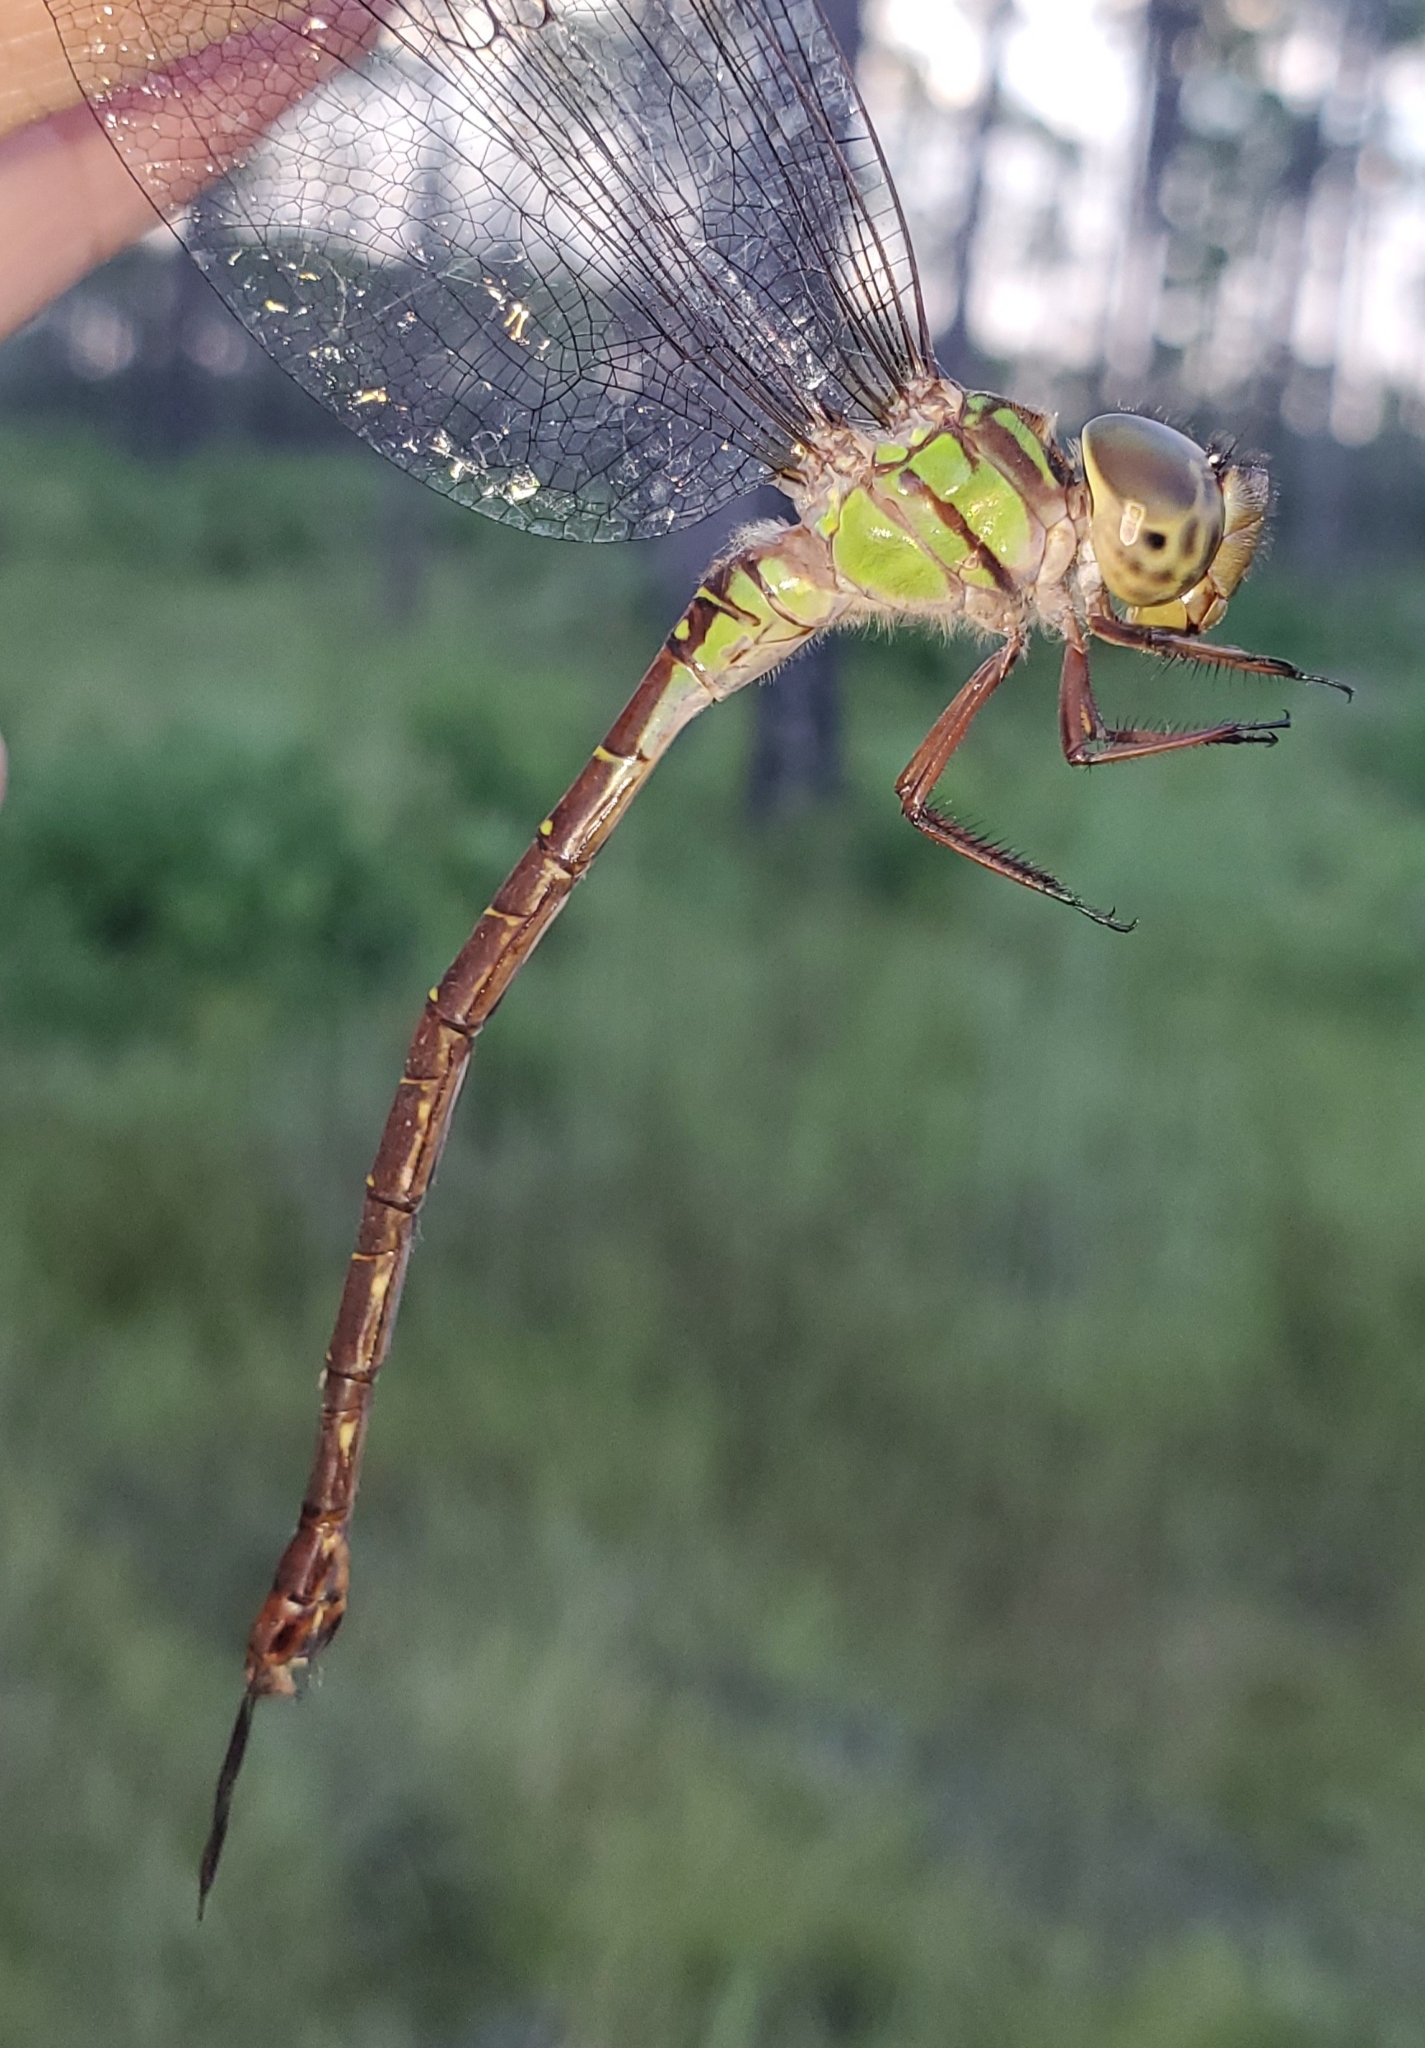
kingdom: Animalia
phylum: Arthropoda
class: Insecta
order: Odonata
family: Aeshnidae
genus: Triacanthagyna
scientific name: Triacanthagyna trifida
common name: Phantom darner
